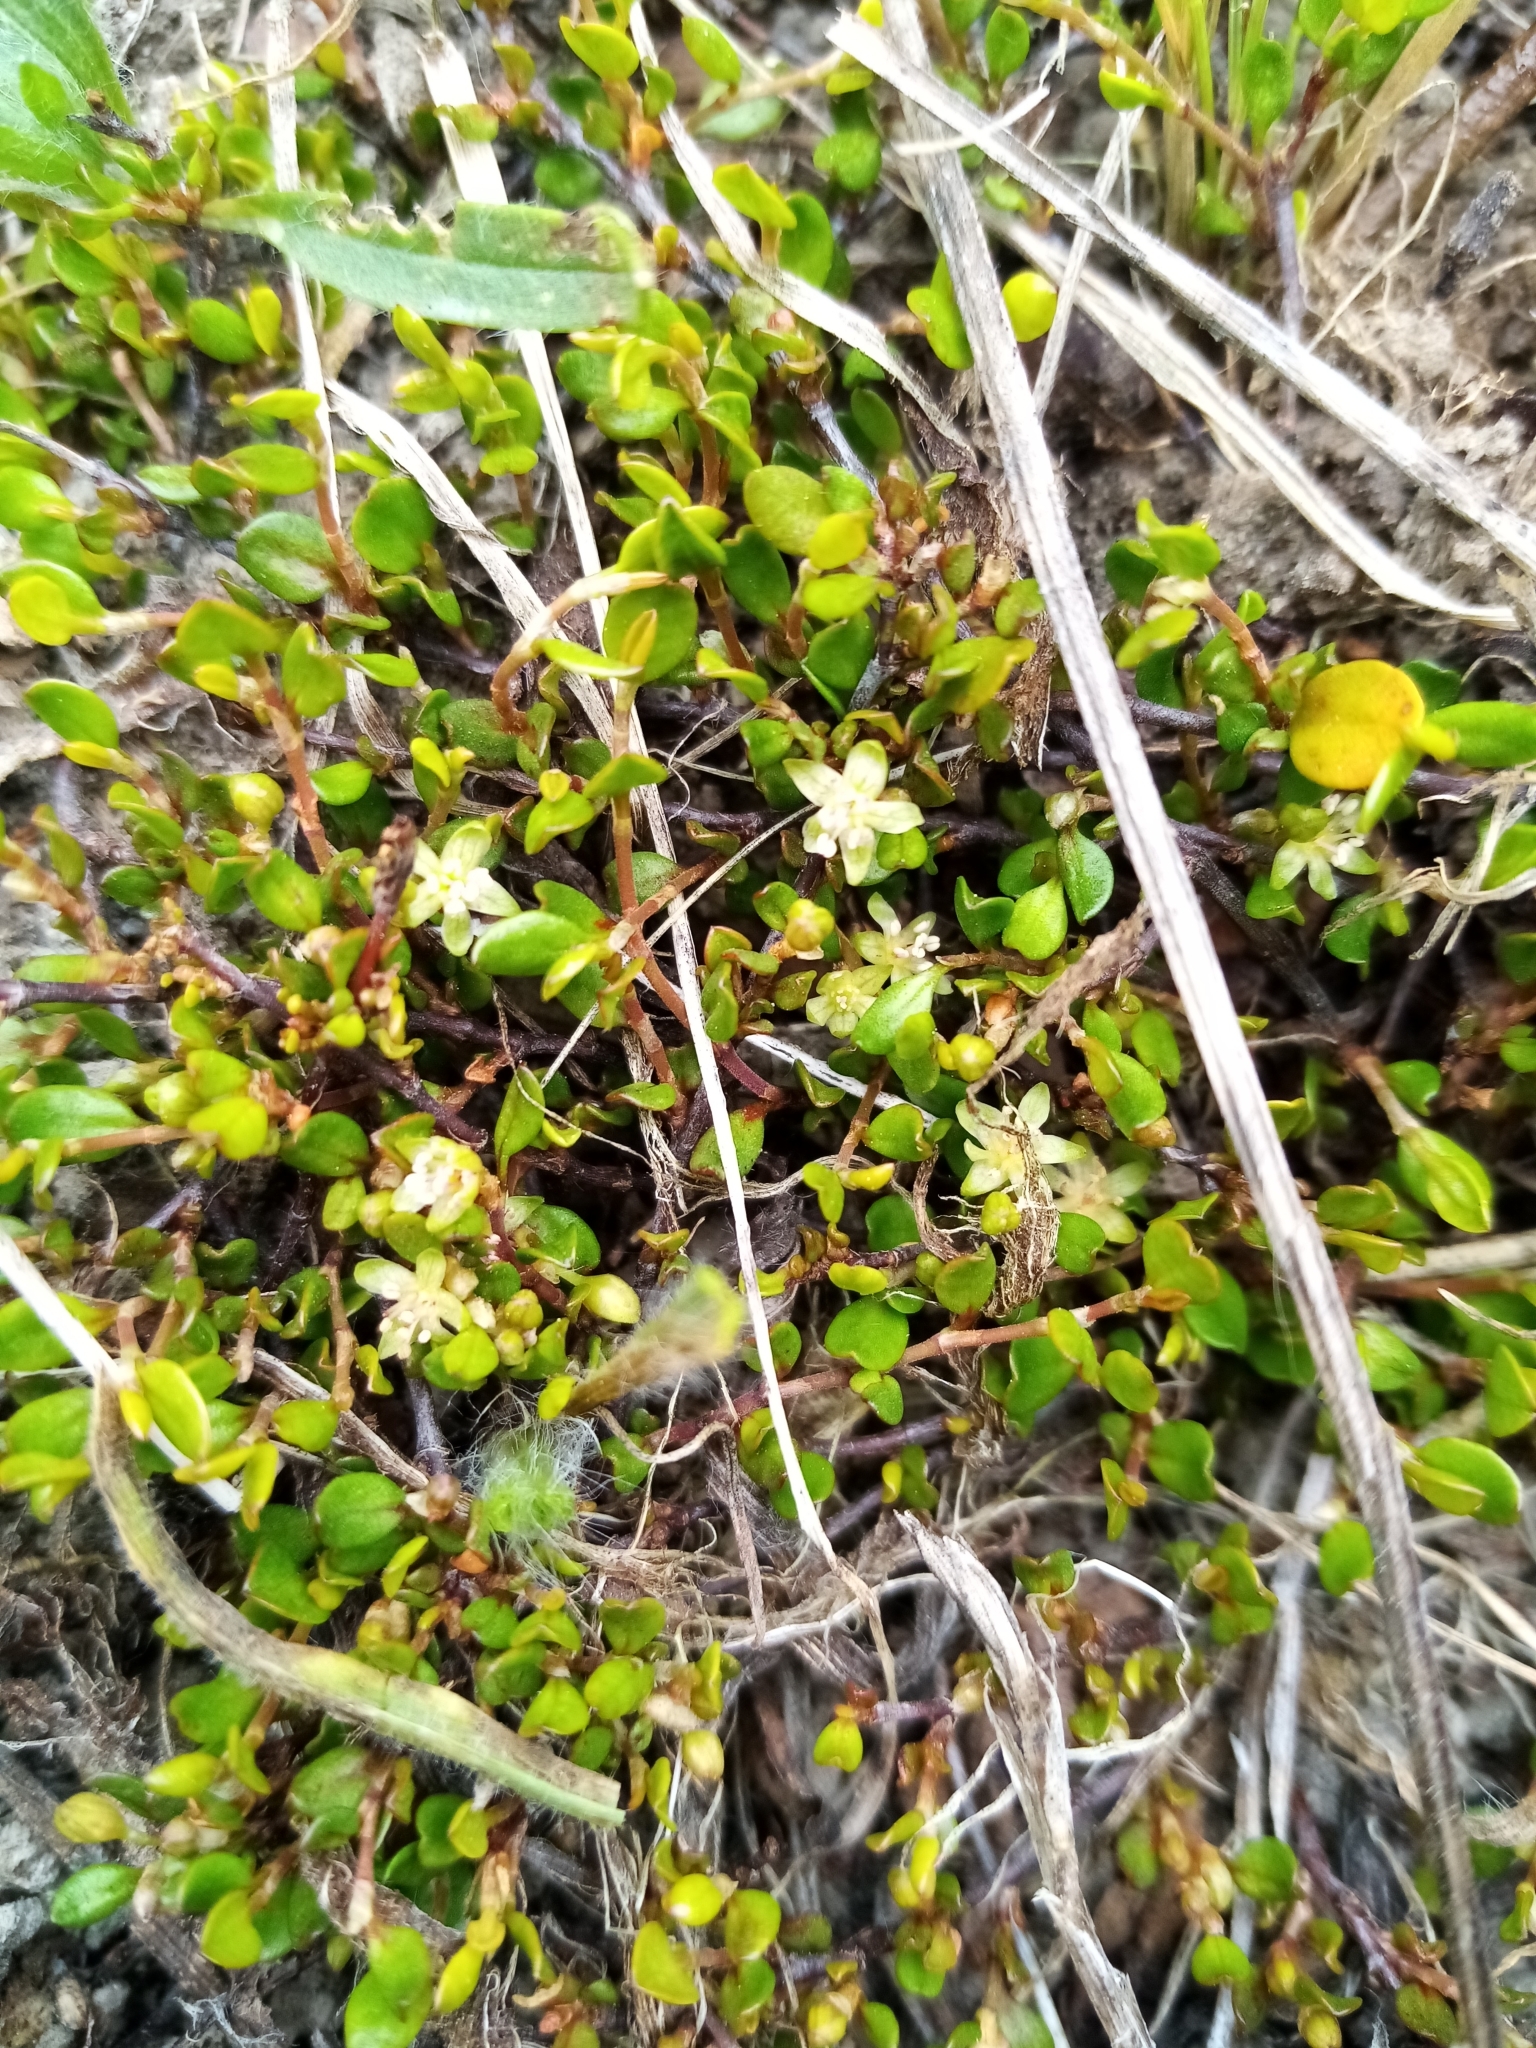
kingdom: Plantae
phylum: Tracheophyta
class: Magnoliopsida
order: Caryophyllales
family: Polygonaceae
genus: Muehlenbeckia
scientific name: Muehlenbeckia axillaris
